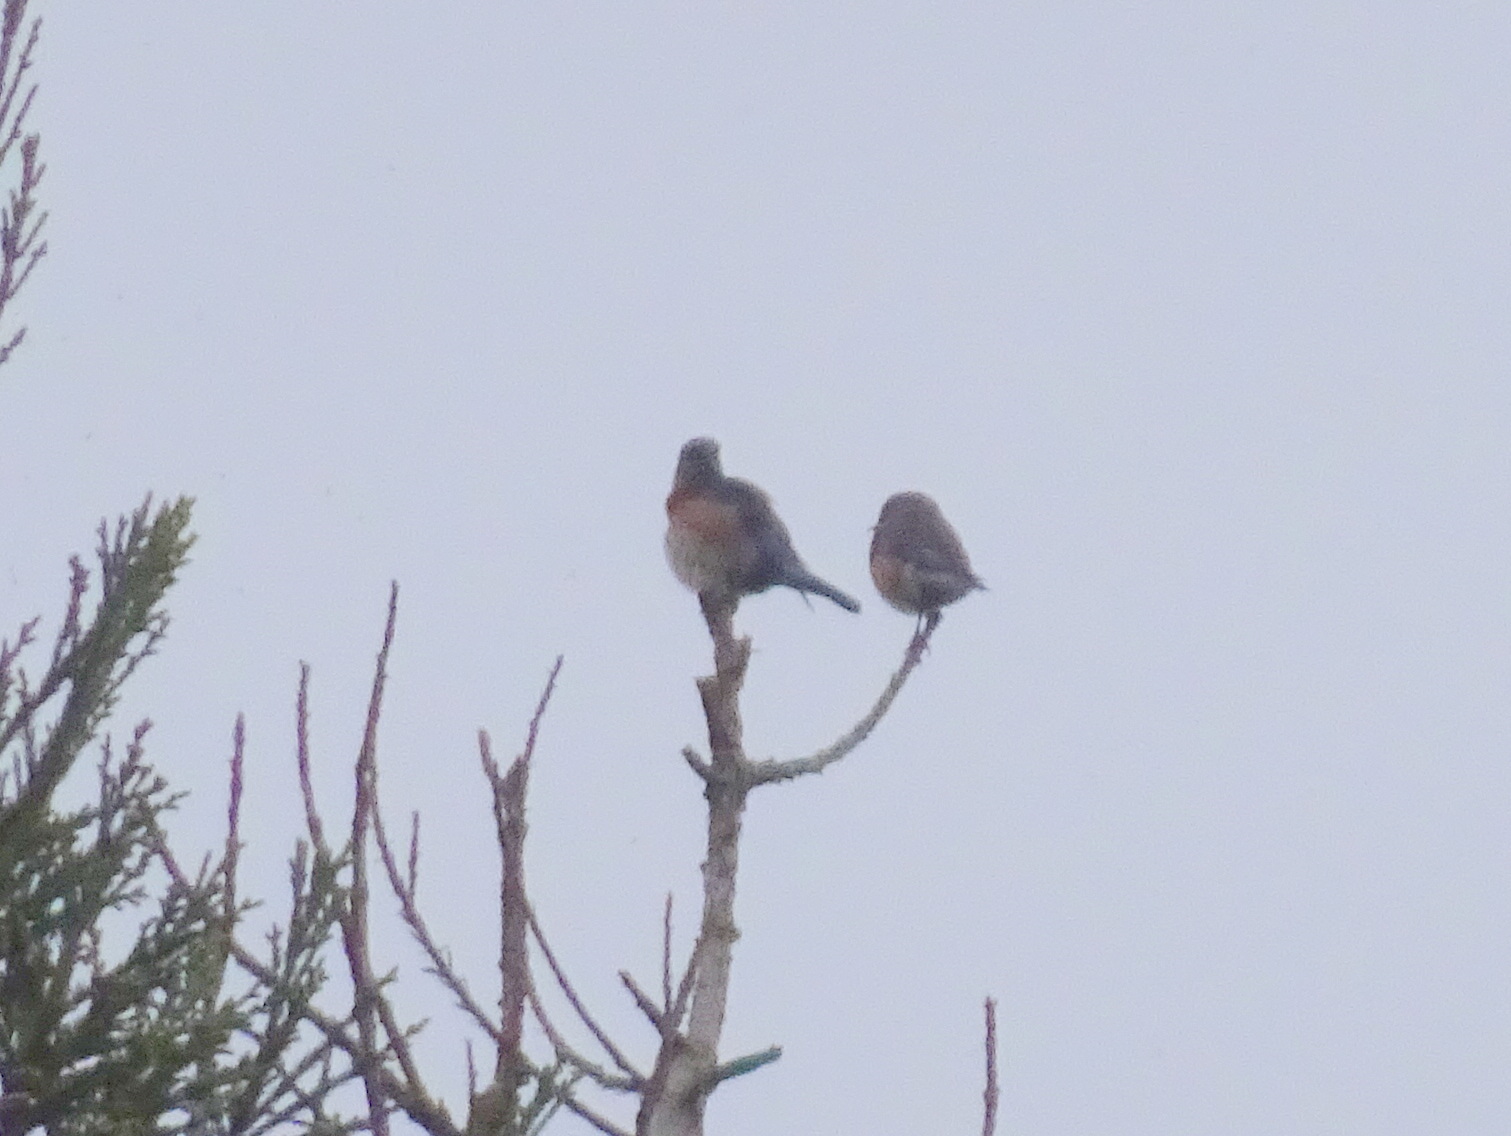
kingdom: Animalia
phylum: Chordata
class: Aves
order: Passeriformes
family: Turdidae
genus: Sialia
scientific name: Sialia mexicana
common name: Western bluebird
